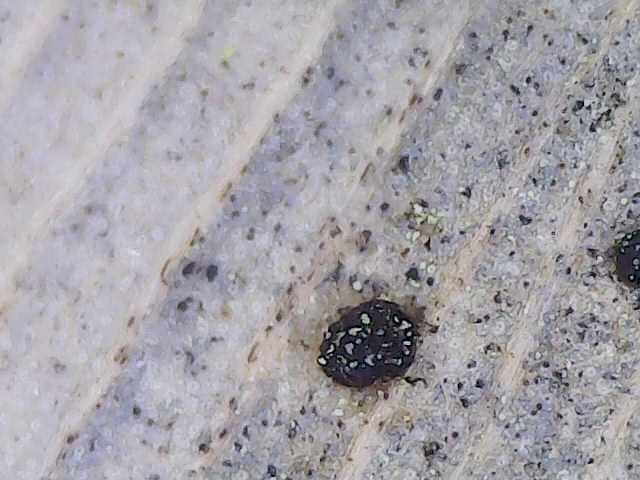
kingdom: Fungi
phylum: Basidiomycota
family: Bartheletiaceae
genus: Bartheletia
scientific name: Bartheletia paradoxa
